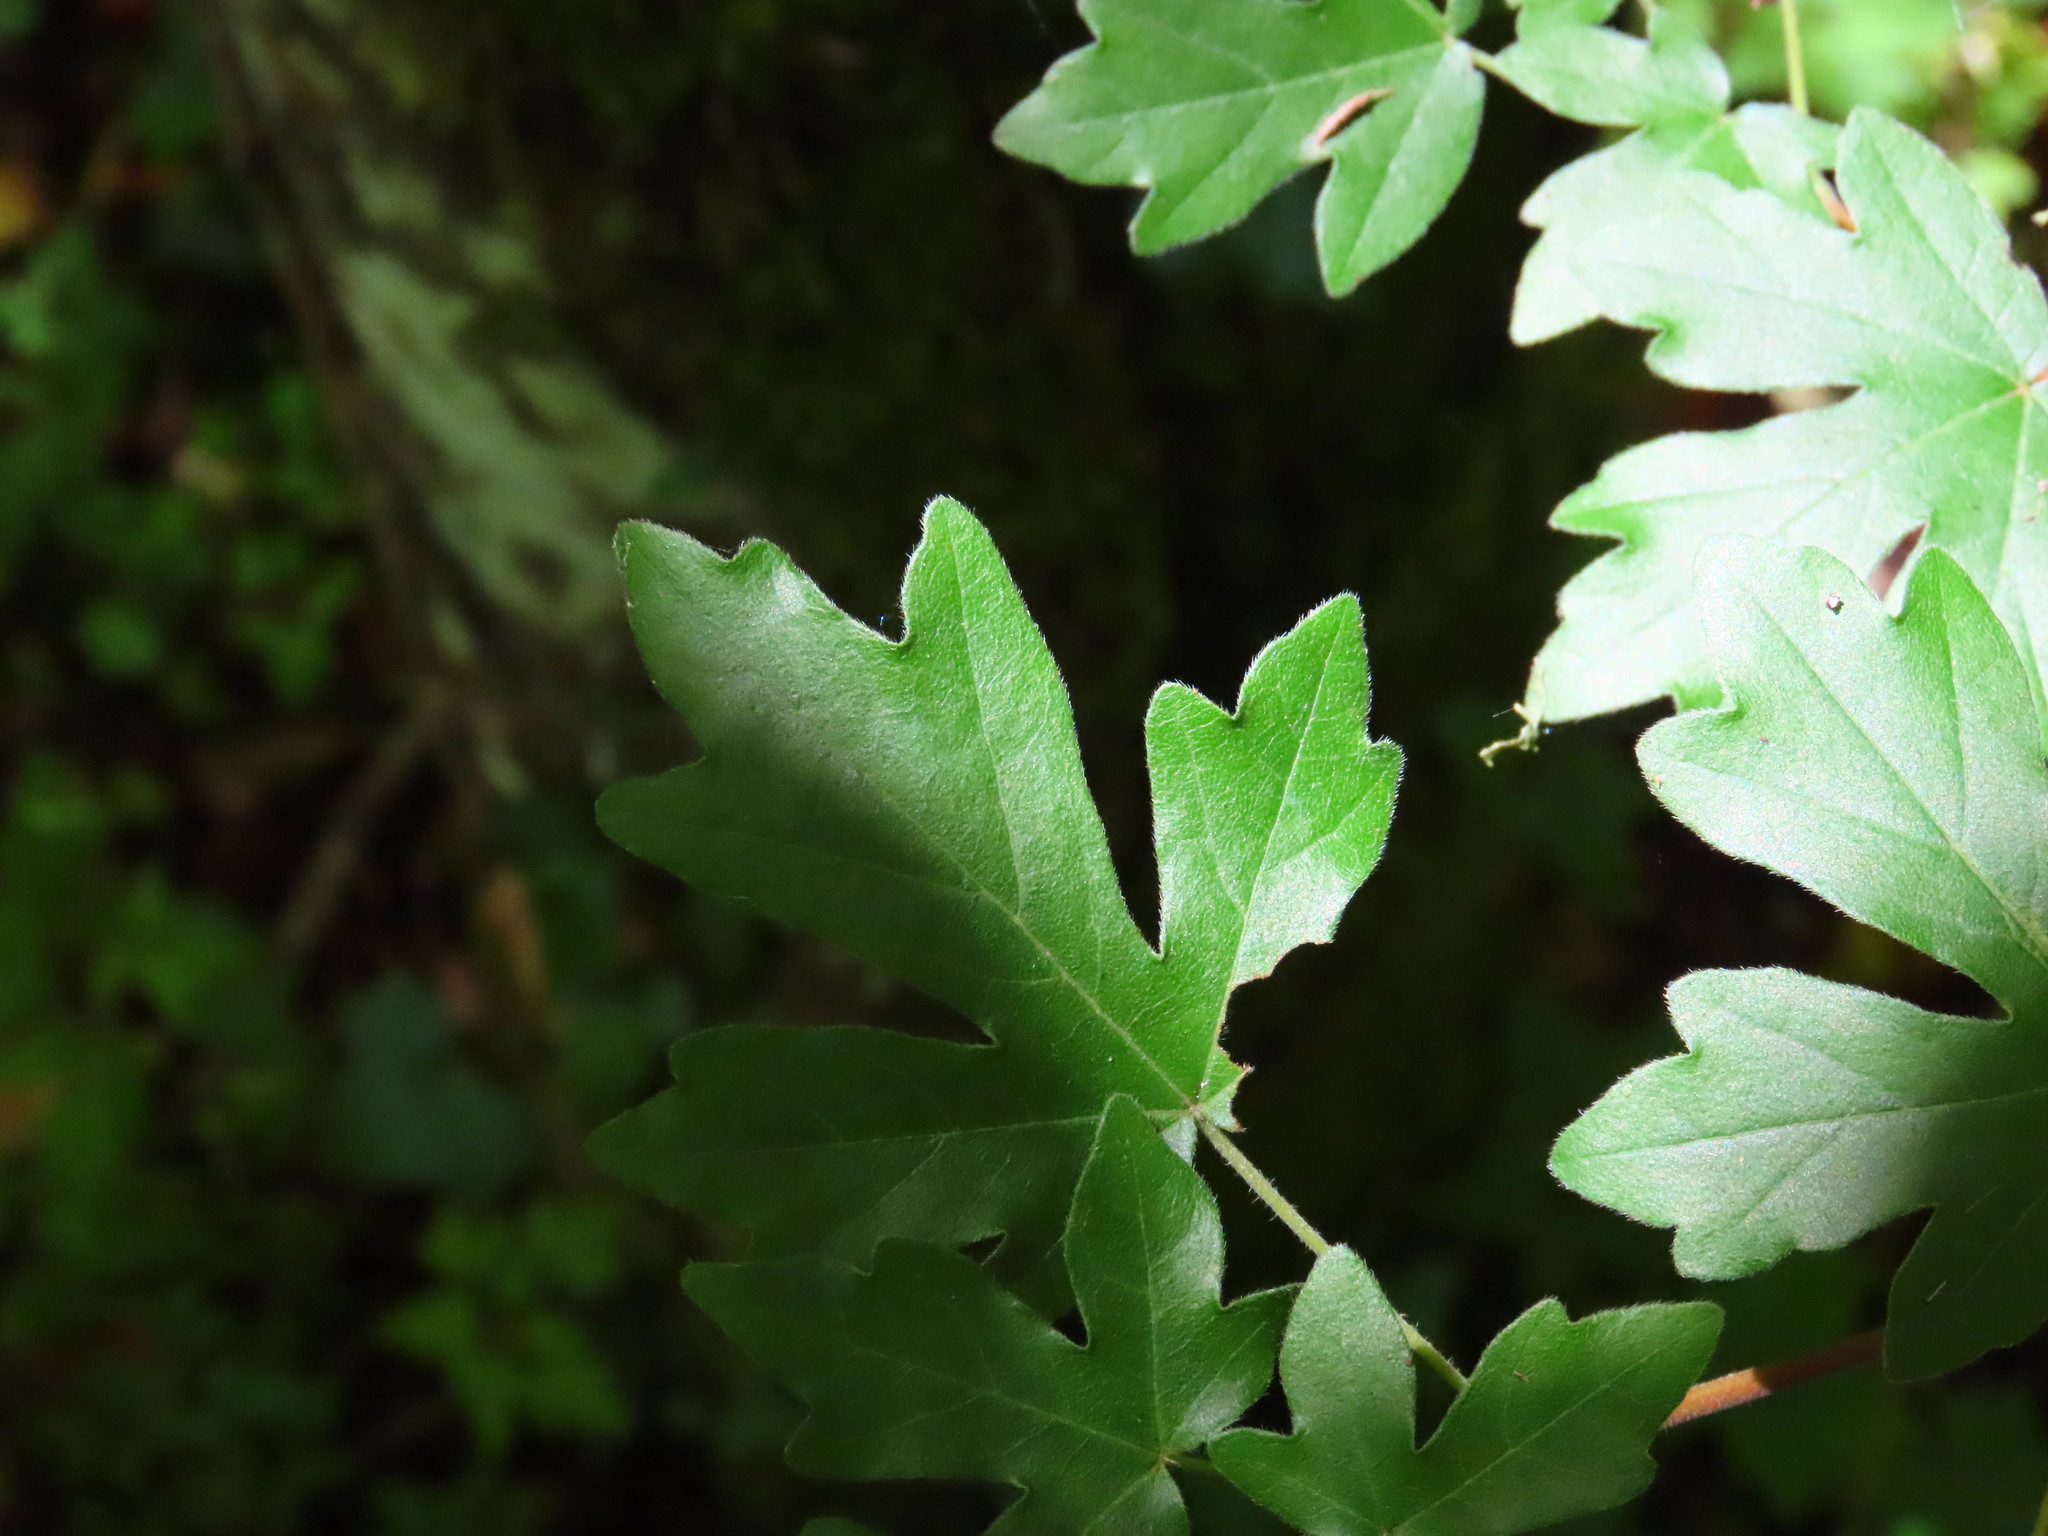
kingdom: Plantae
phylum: Tracheophyta
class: Magnoliopsida
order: Sapindales
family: Sapindaceae
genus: Acer
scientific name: Acer campestre
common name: Field maple
